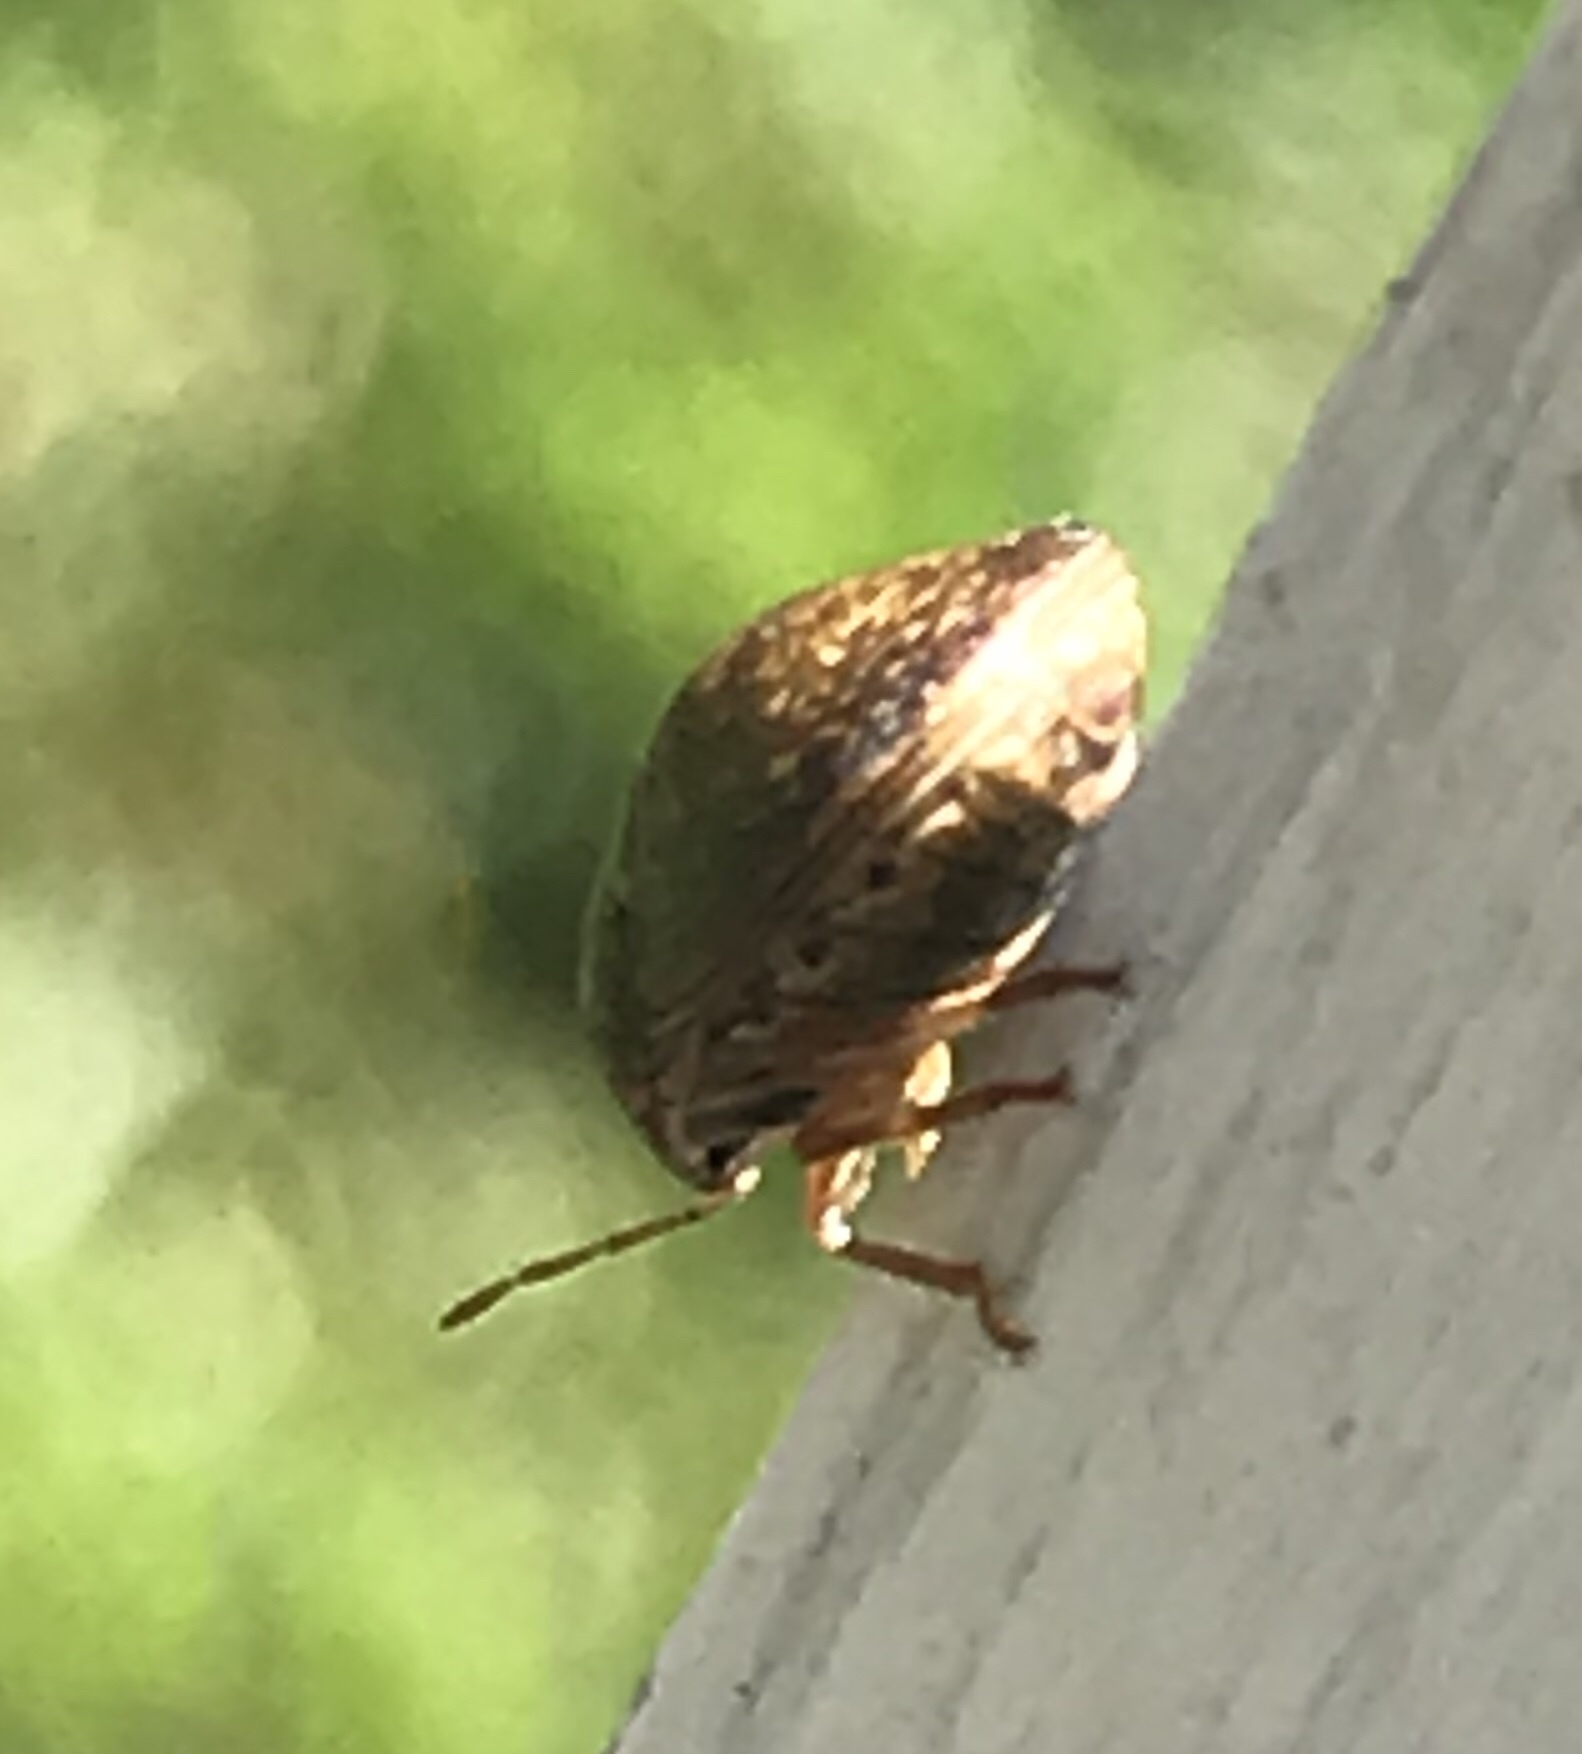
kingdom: Animalia
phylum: Arthropoda
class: Insecta
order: Hemiptera
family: Plataspidae
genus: Megacopta
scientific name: Megacopta cribraria
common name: Bean plataspid
